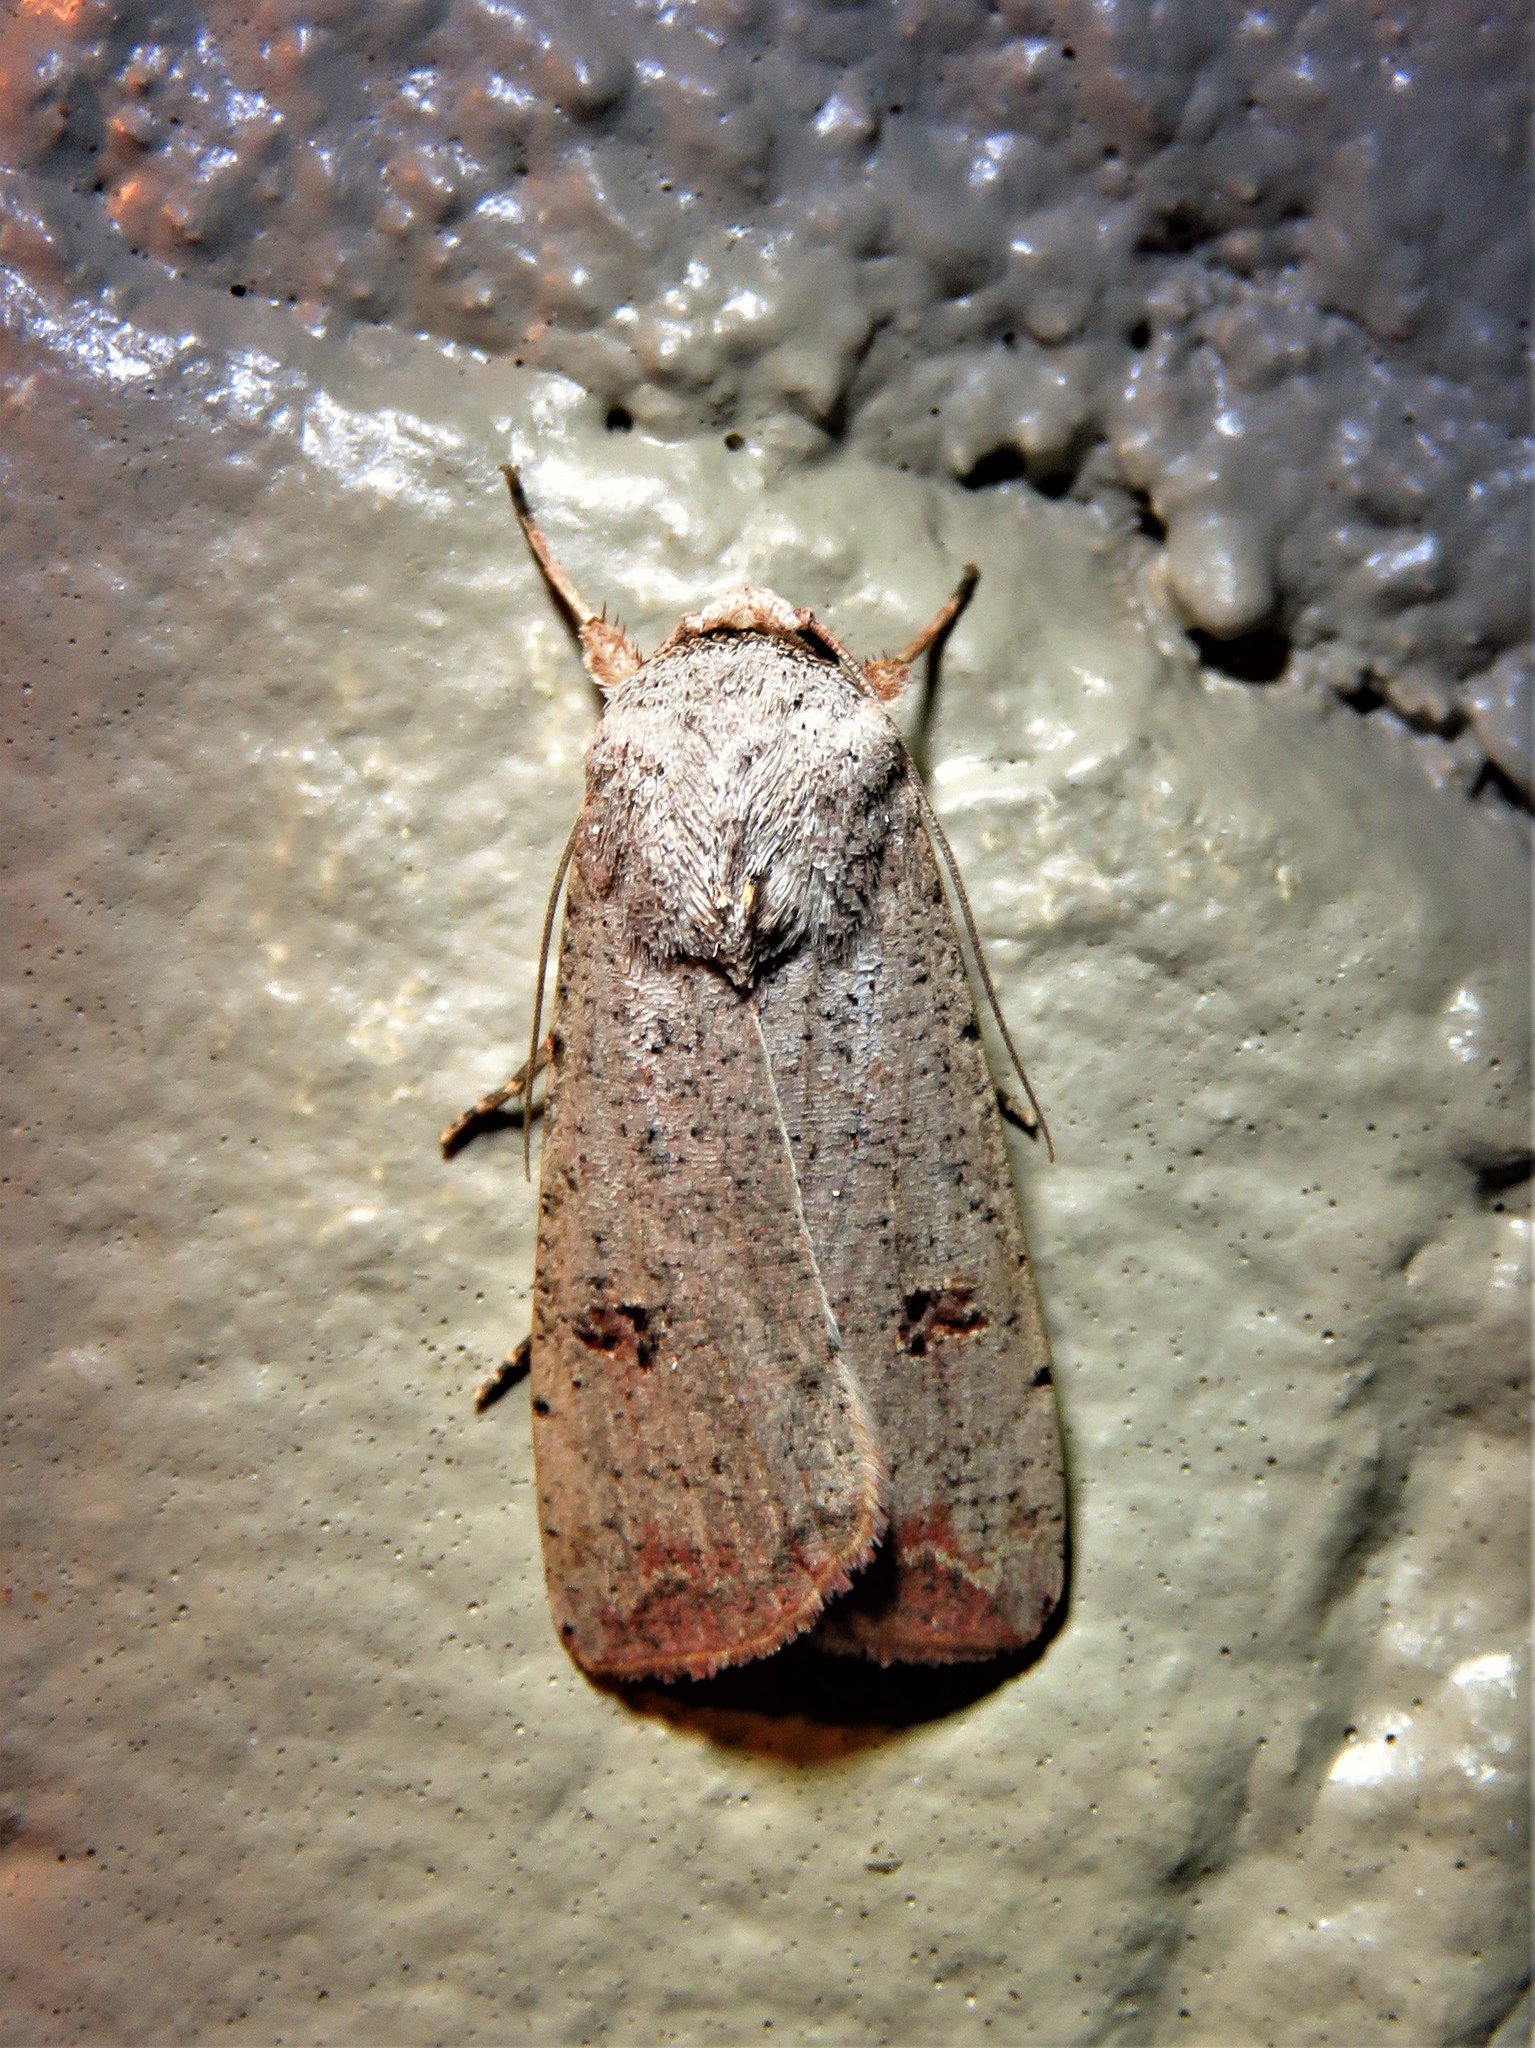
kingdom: Animalia
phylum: Arthropoda
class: Insecta
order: Lepidoptera
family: Noctuidae
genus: Anicla
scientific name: Anicla infecta
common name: Green cutworm
